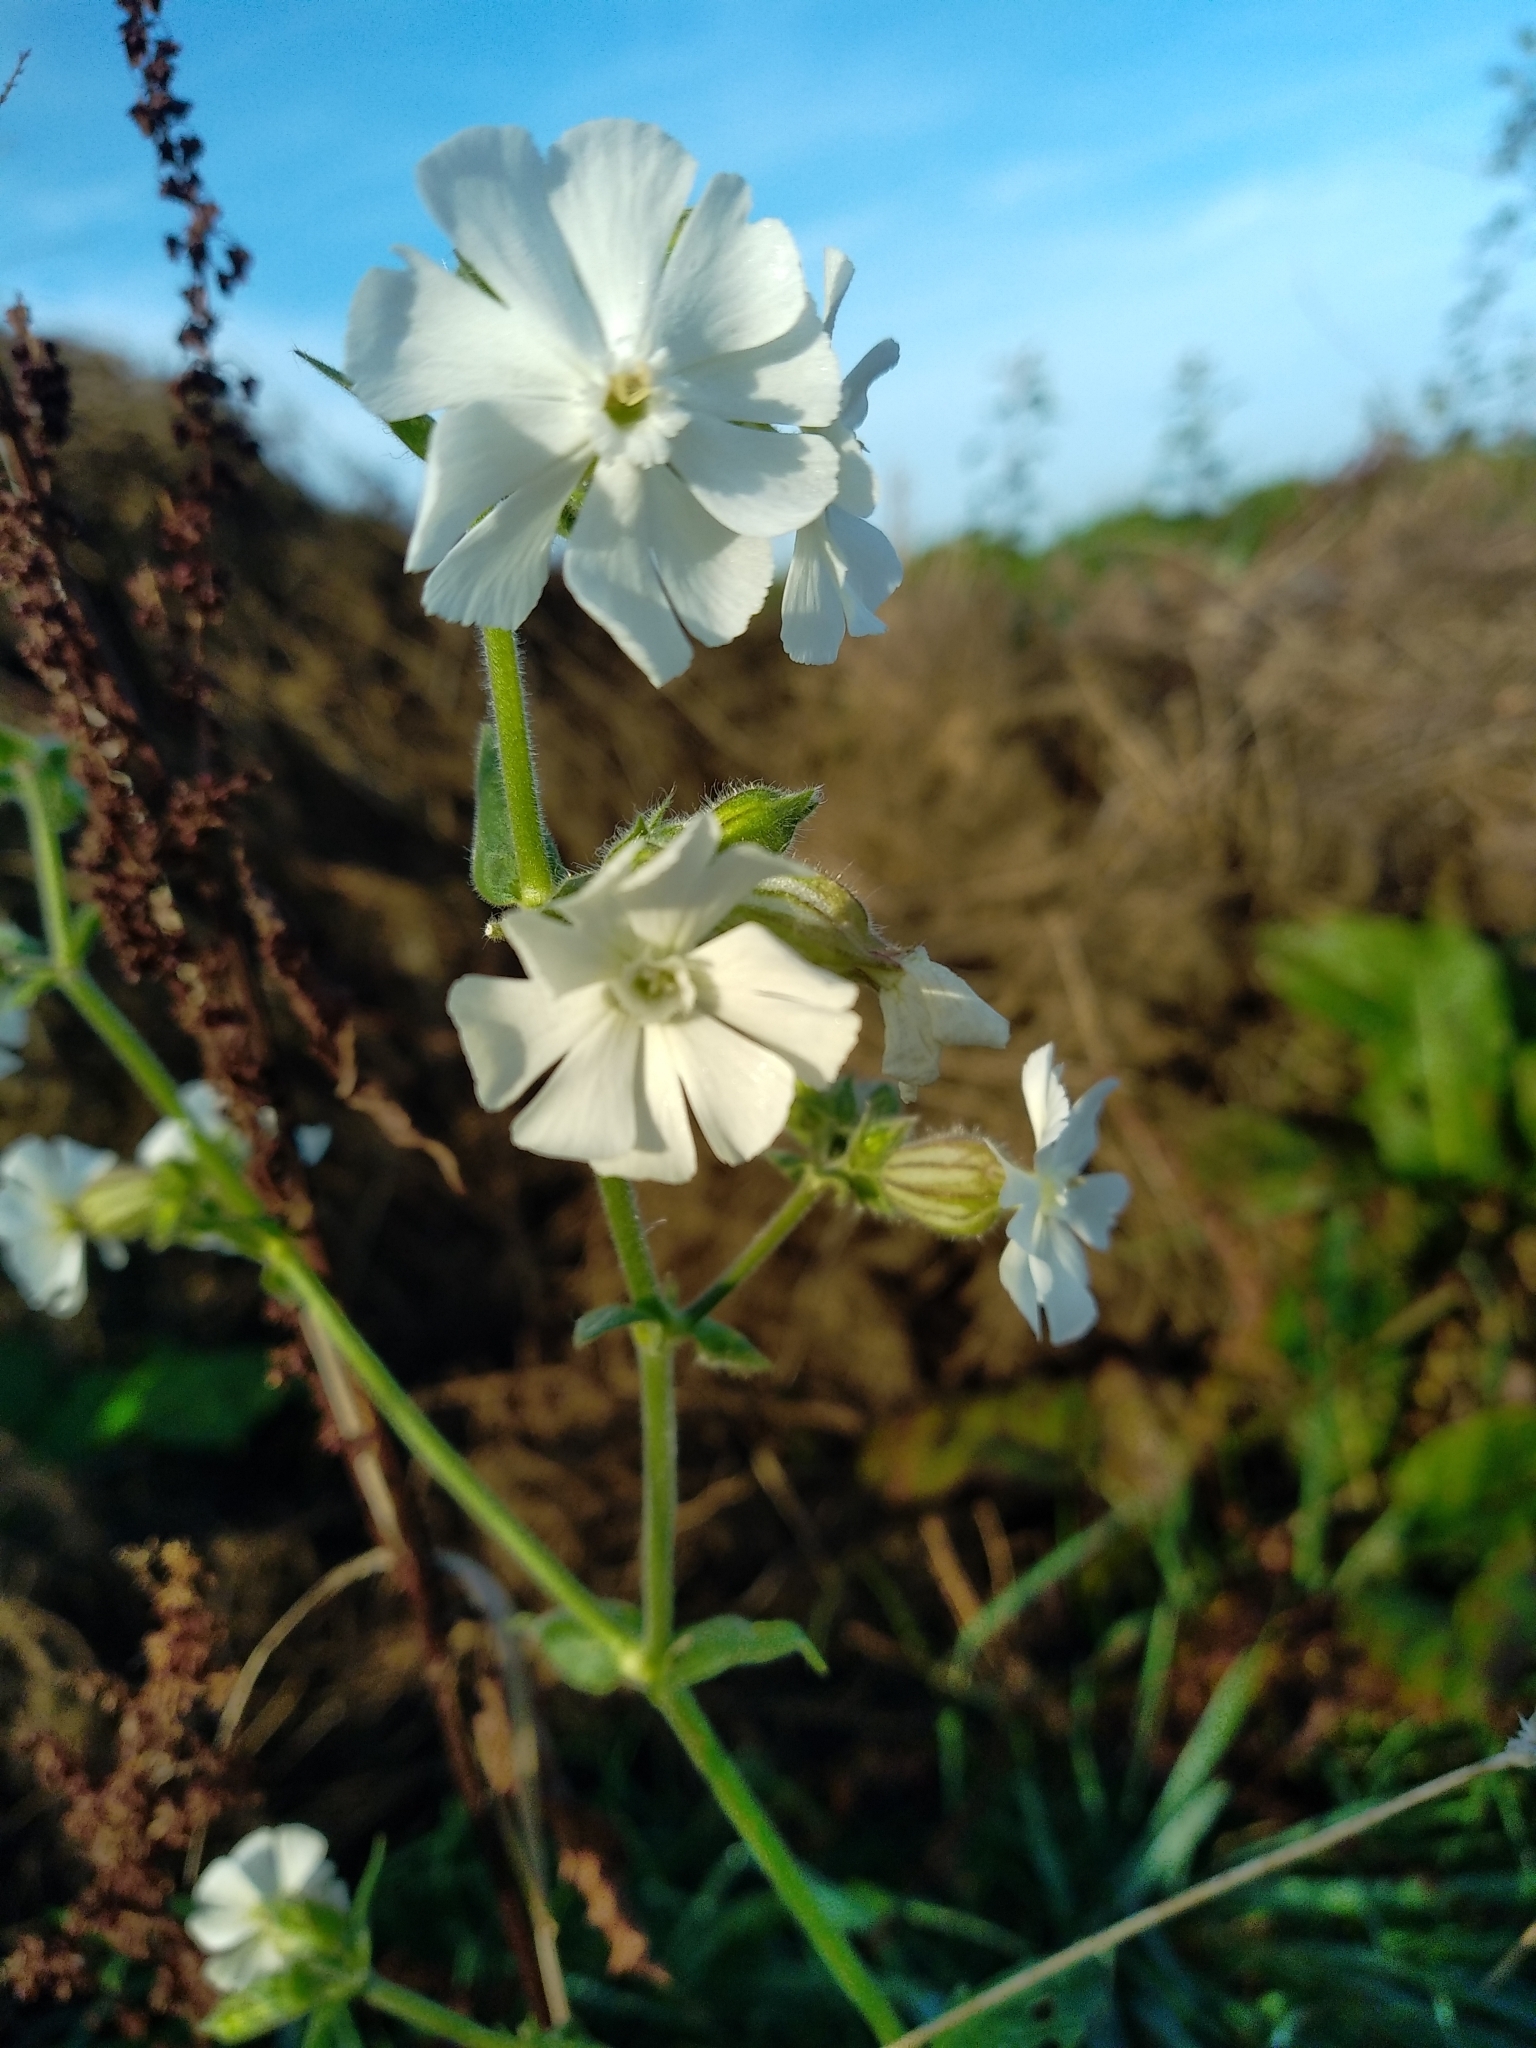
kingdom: Plantae
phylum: Tracheophyta
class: Magnoliopsida
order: Caryophyllales
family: Caryophyllaceae
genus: Silene
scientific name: Silene latifolia
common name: White campion
